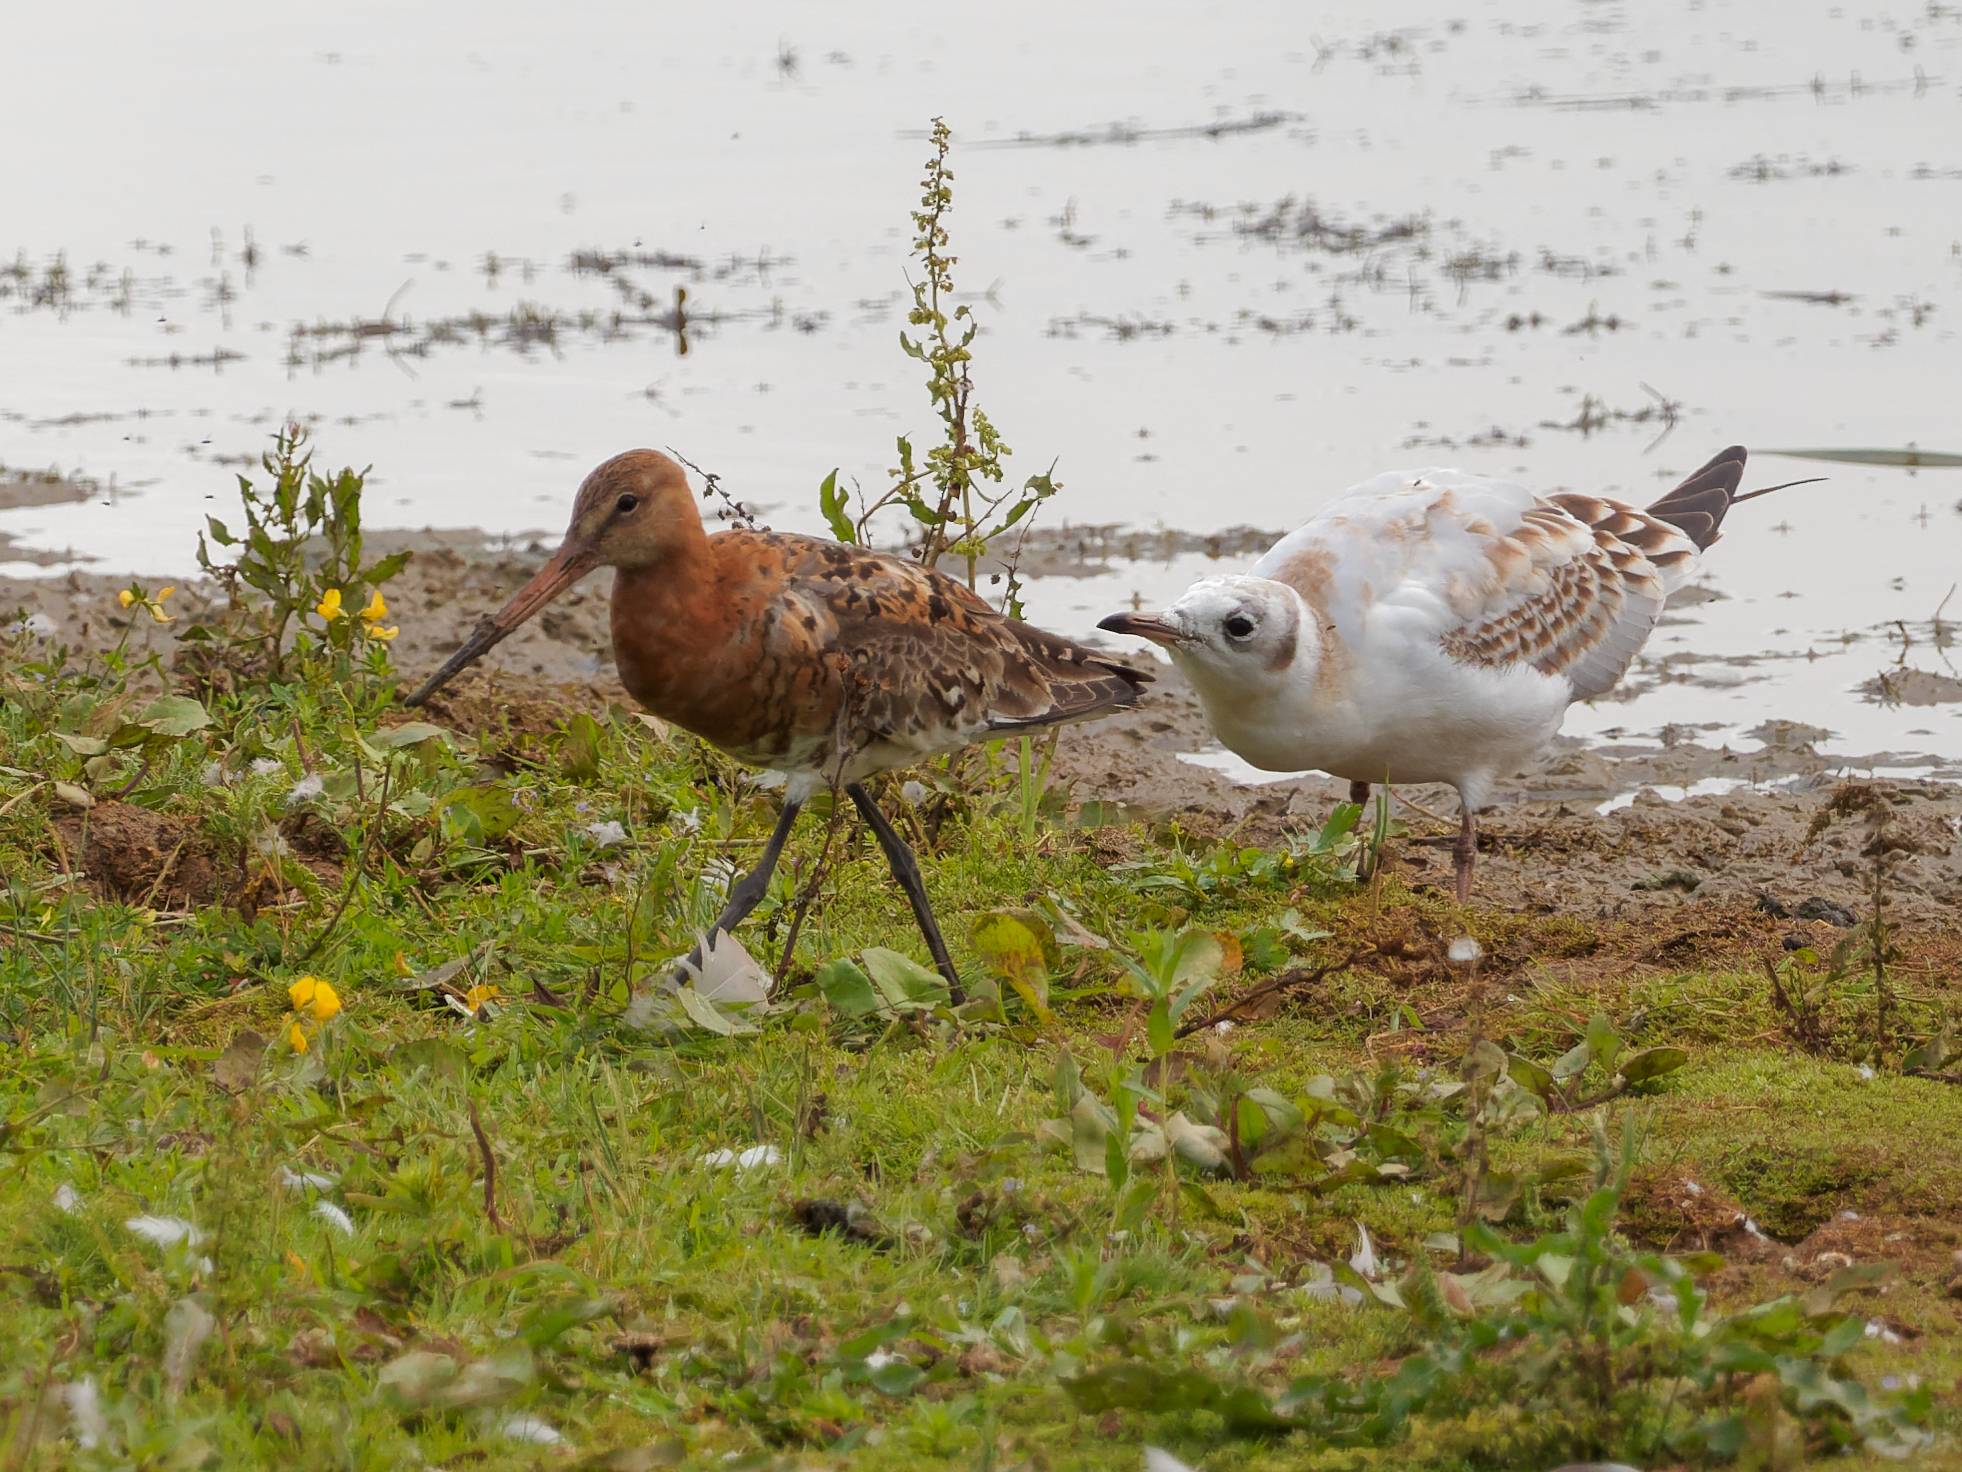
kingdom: Animalia
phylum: Chordata
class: Aves
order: Charadriiformes
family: Scolopacidae
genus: Limosa
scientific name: Limosa limosa
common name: Black-tailed godwit
